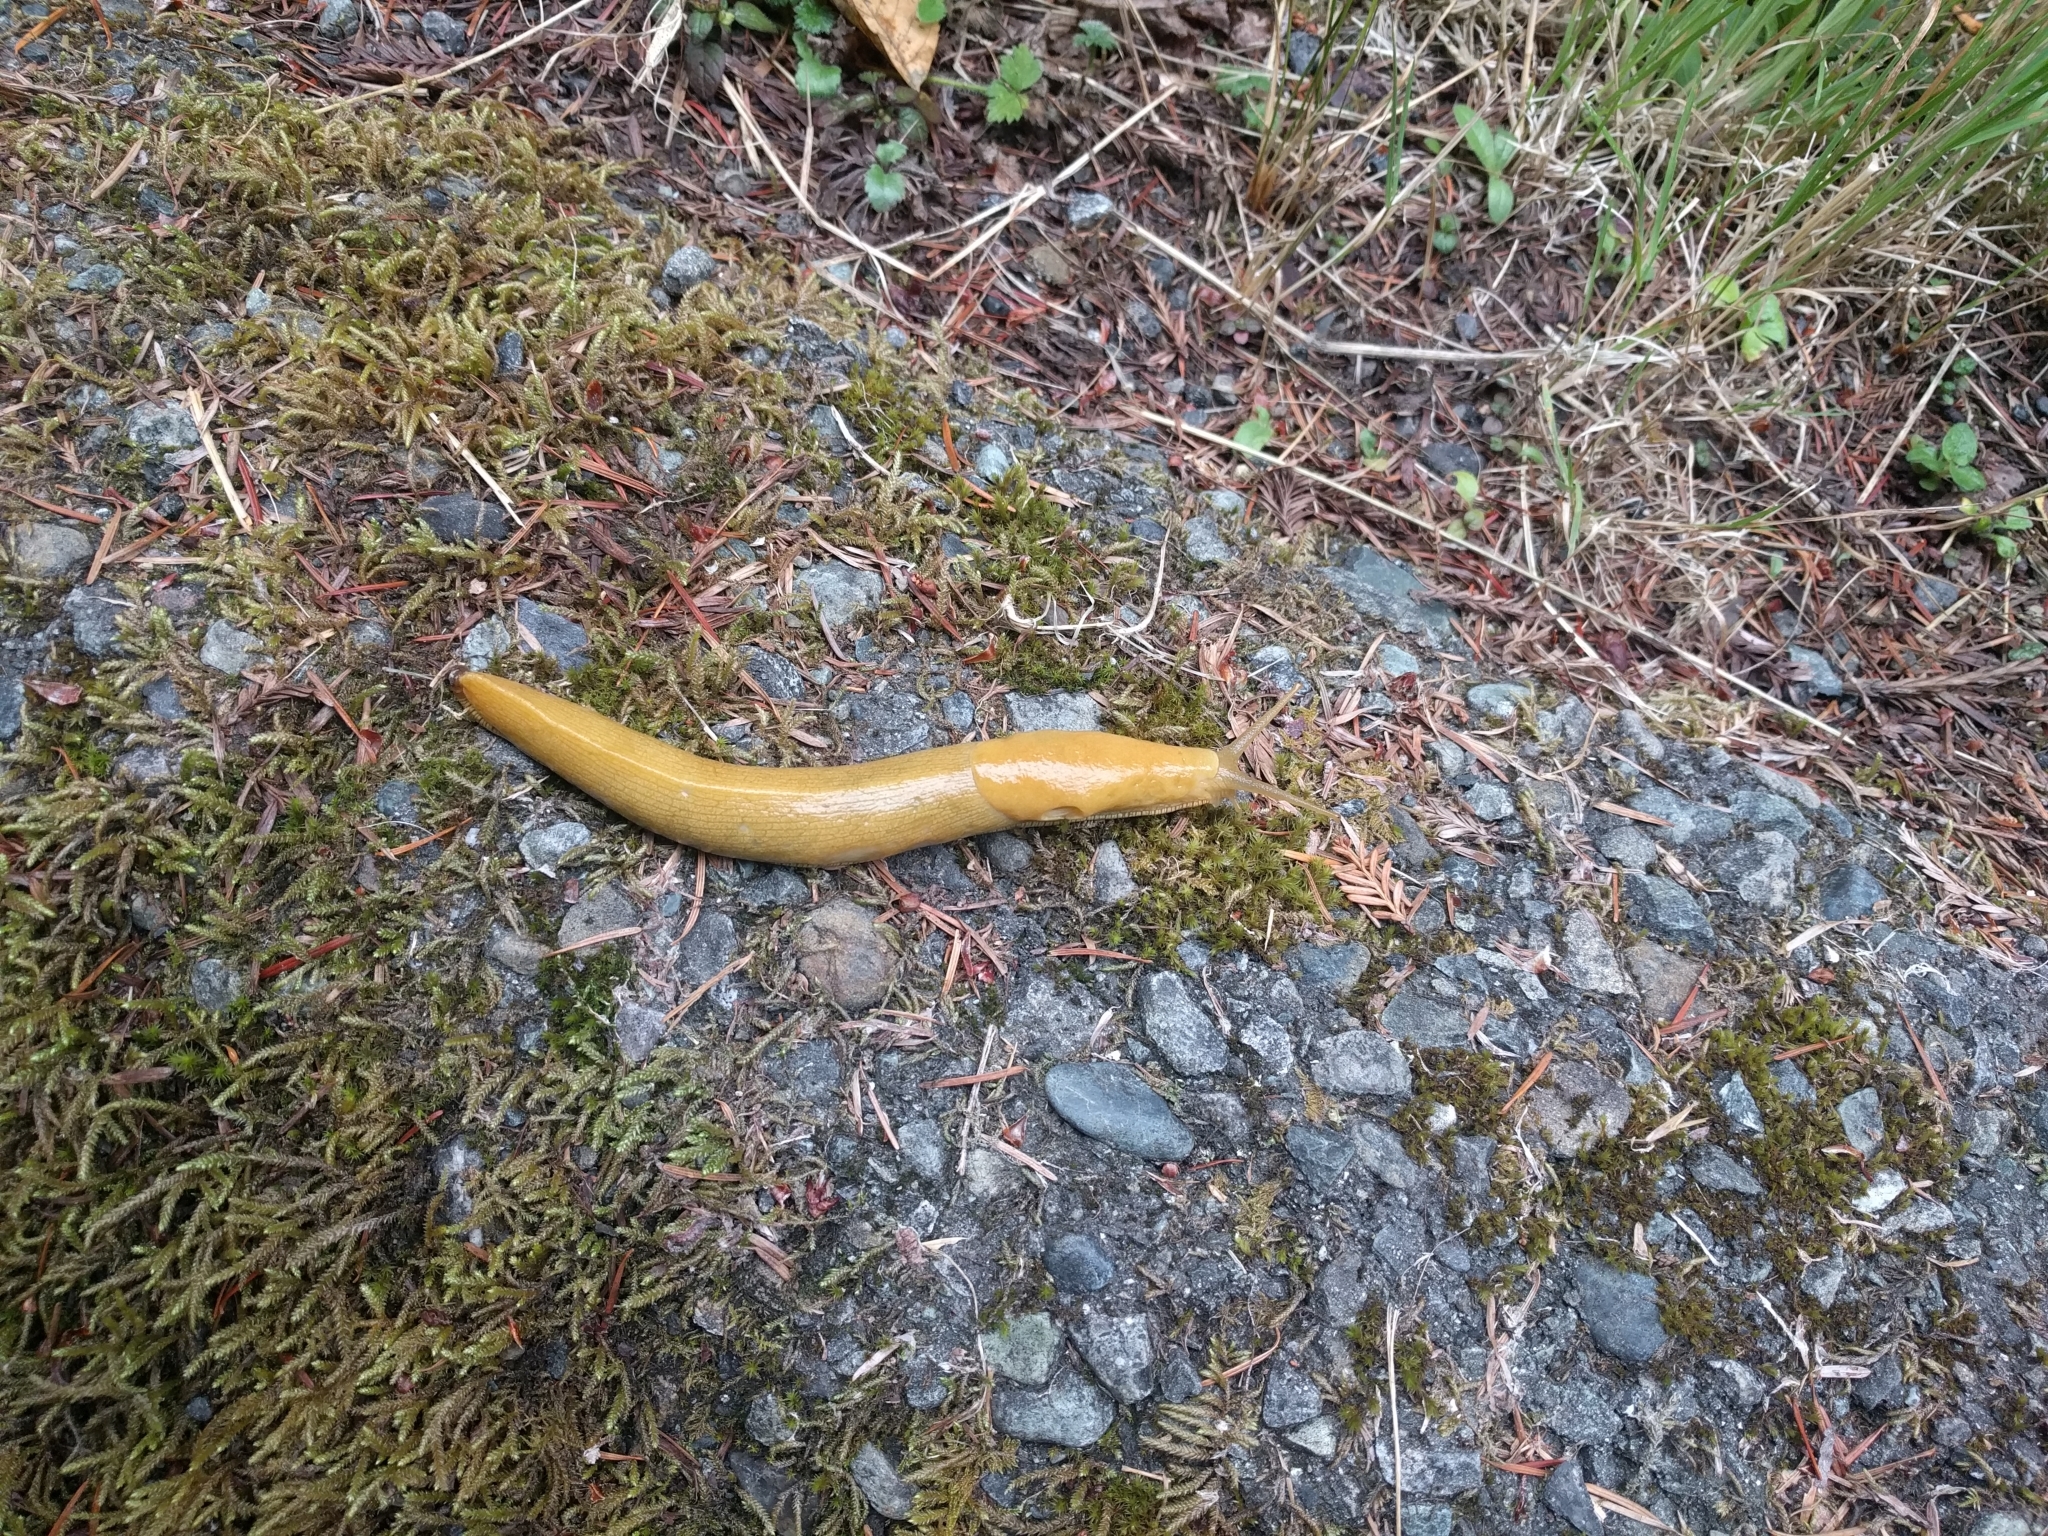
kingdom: Animalia
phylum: Mollusca
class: Gastropoda
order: Stylommatophora
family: Ariolimacidae
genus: Ariolimax
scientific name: Ariolimax columbianus
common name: Pacific banana slug
